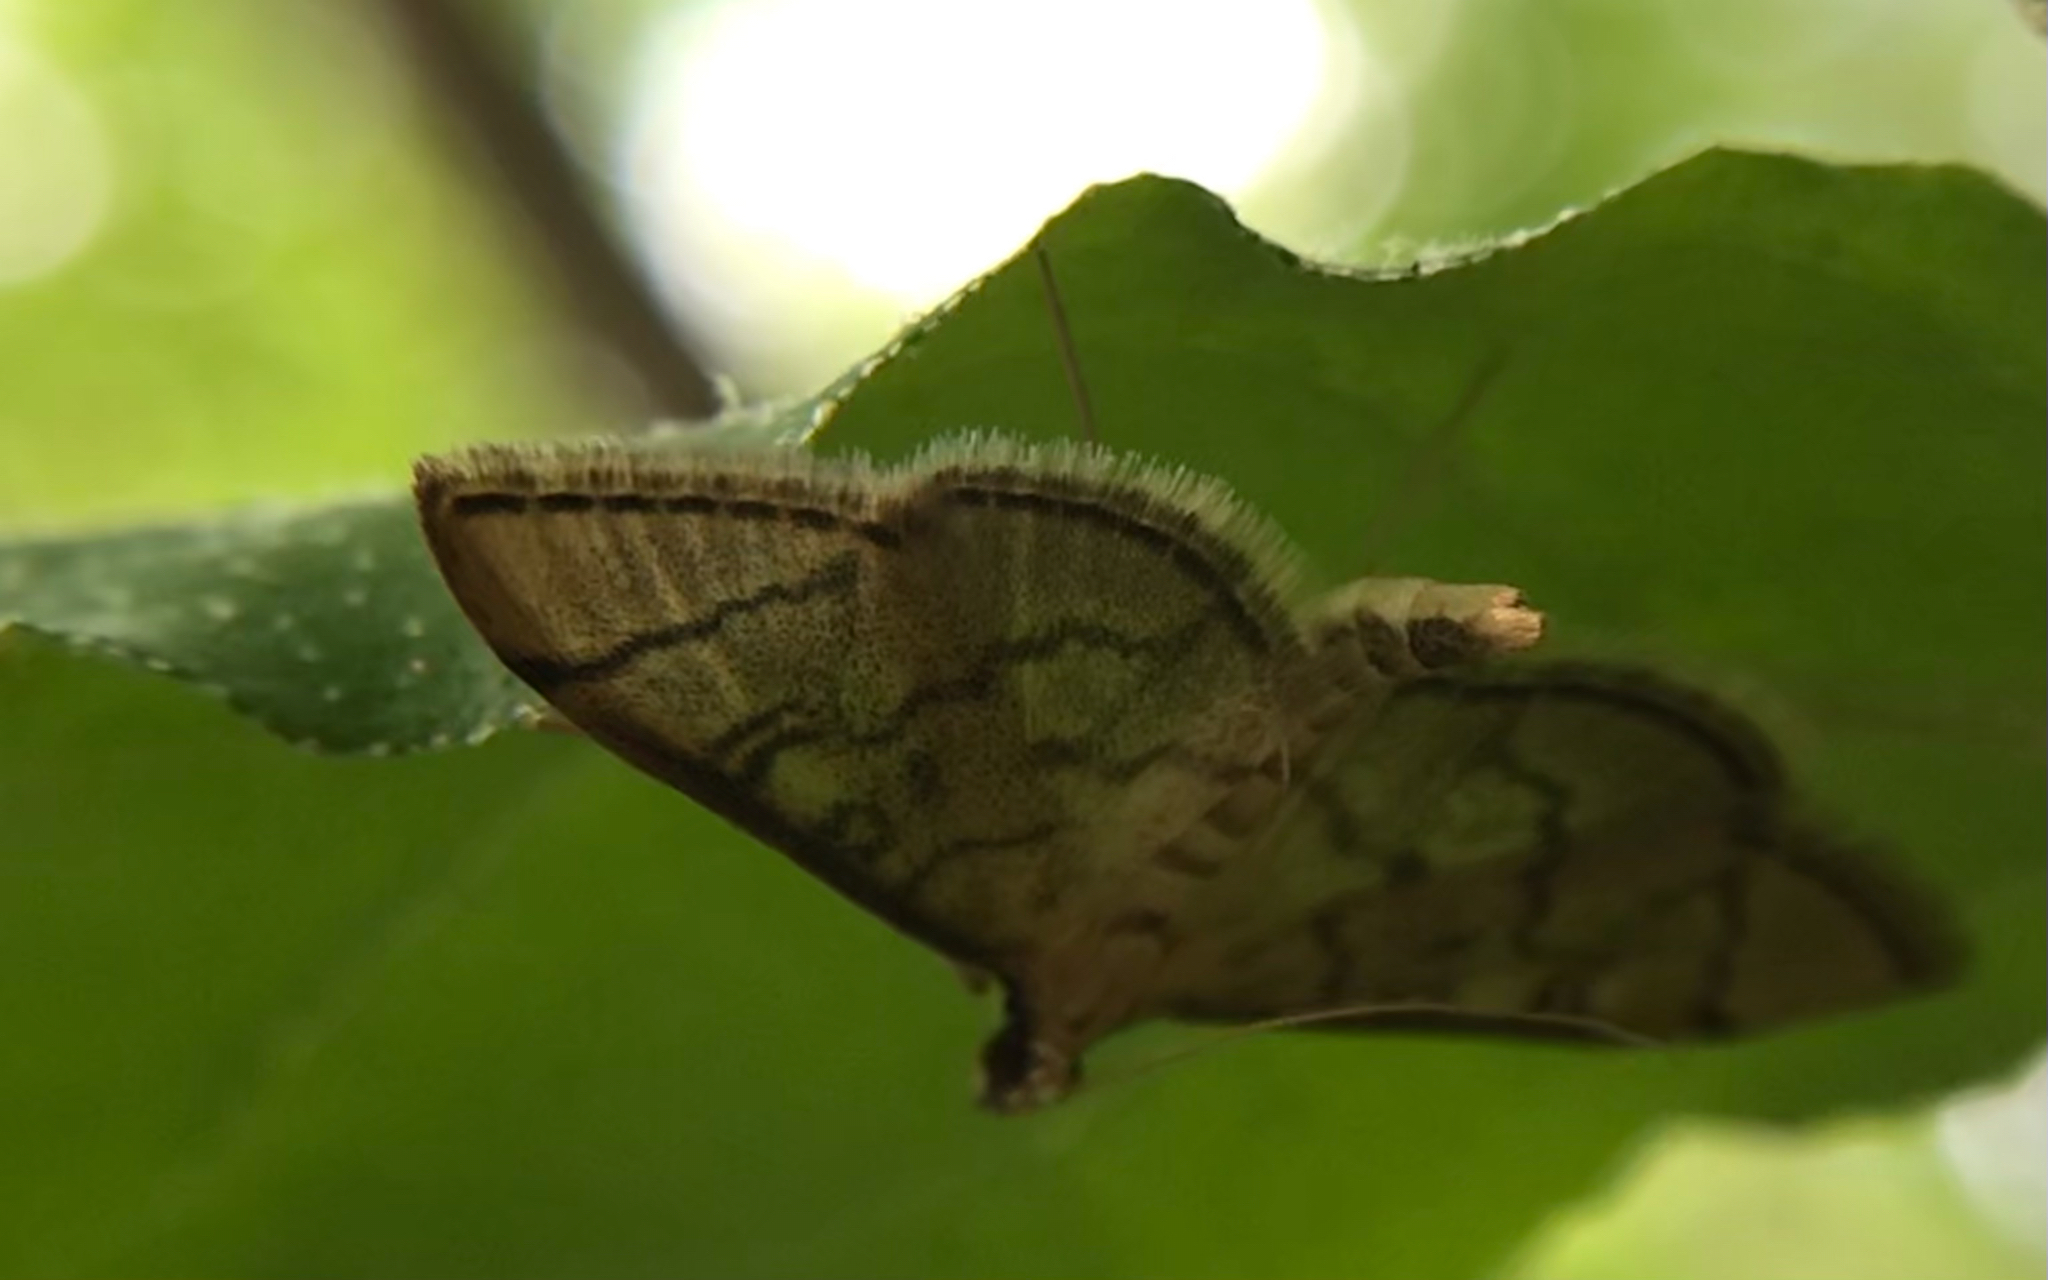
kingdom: Animalia
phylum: Arthropoda
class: Insecta
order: Lepidoptera
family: Crambidae
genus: Lamprosema
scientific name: Lamprosema Blepharomastix ranalis
